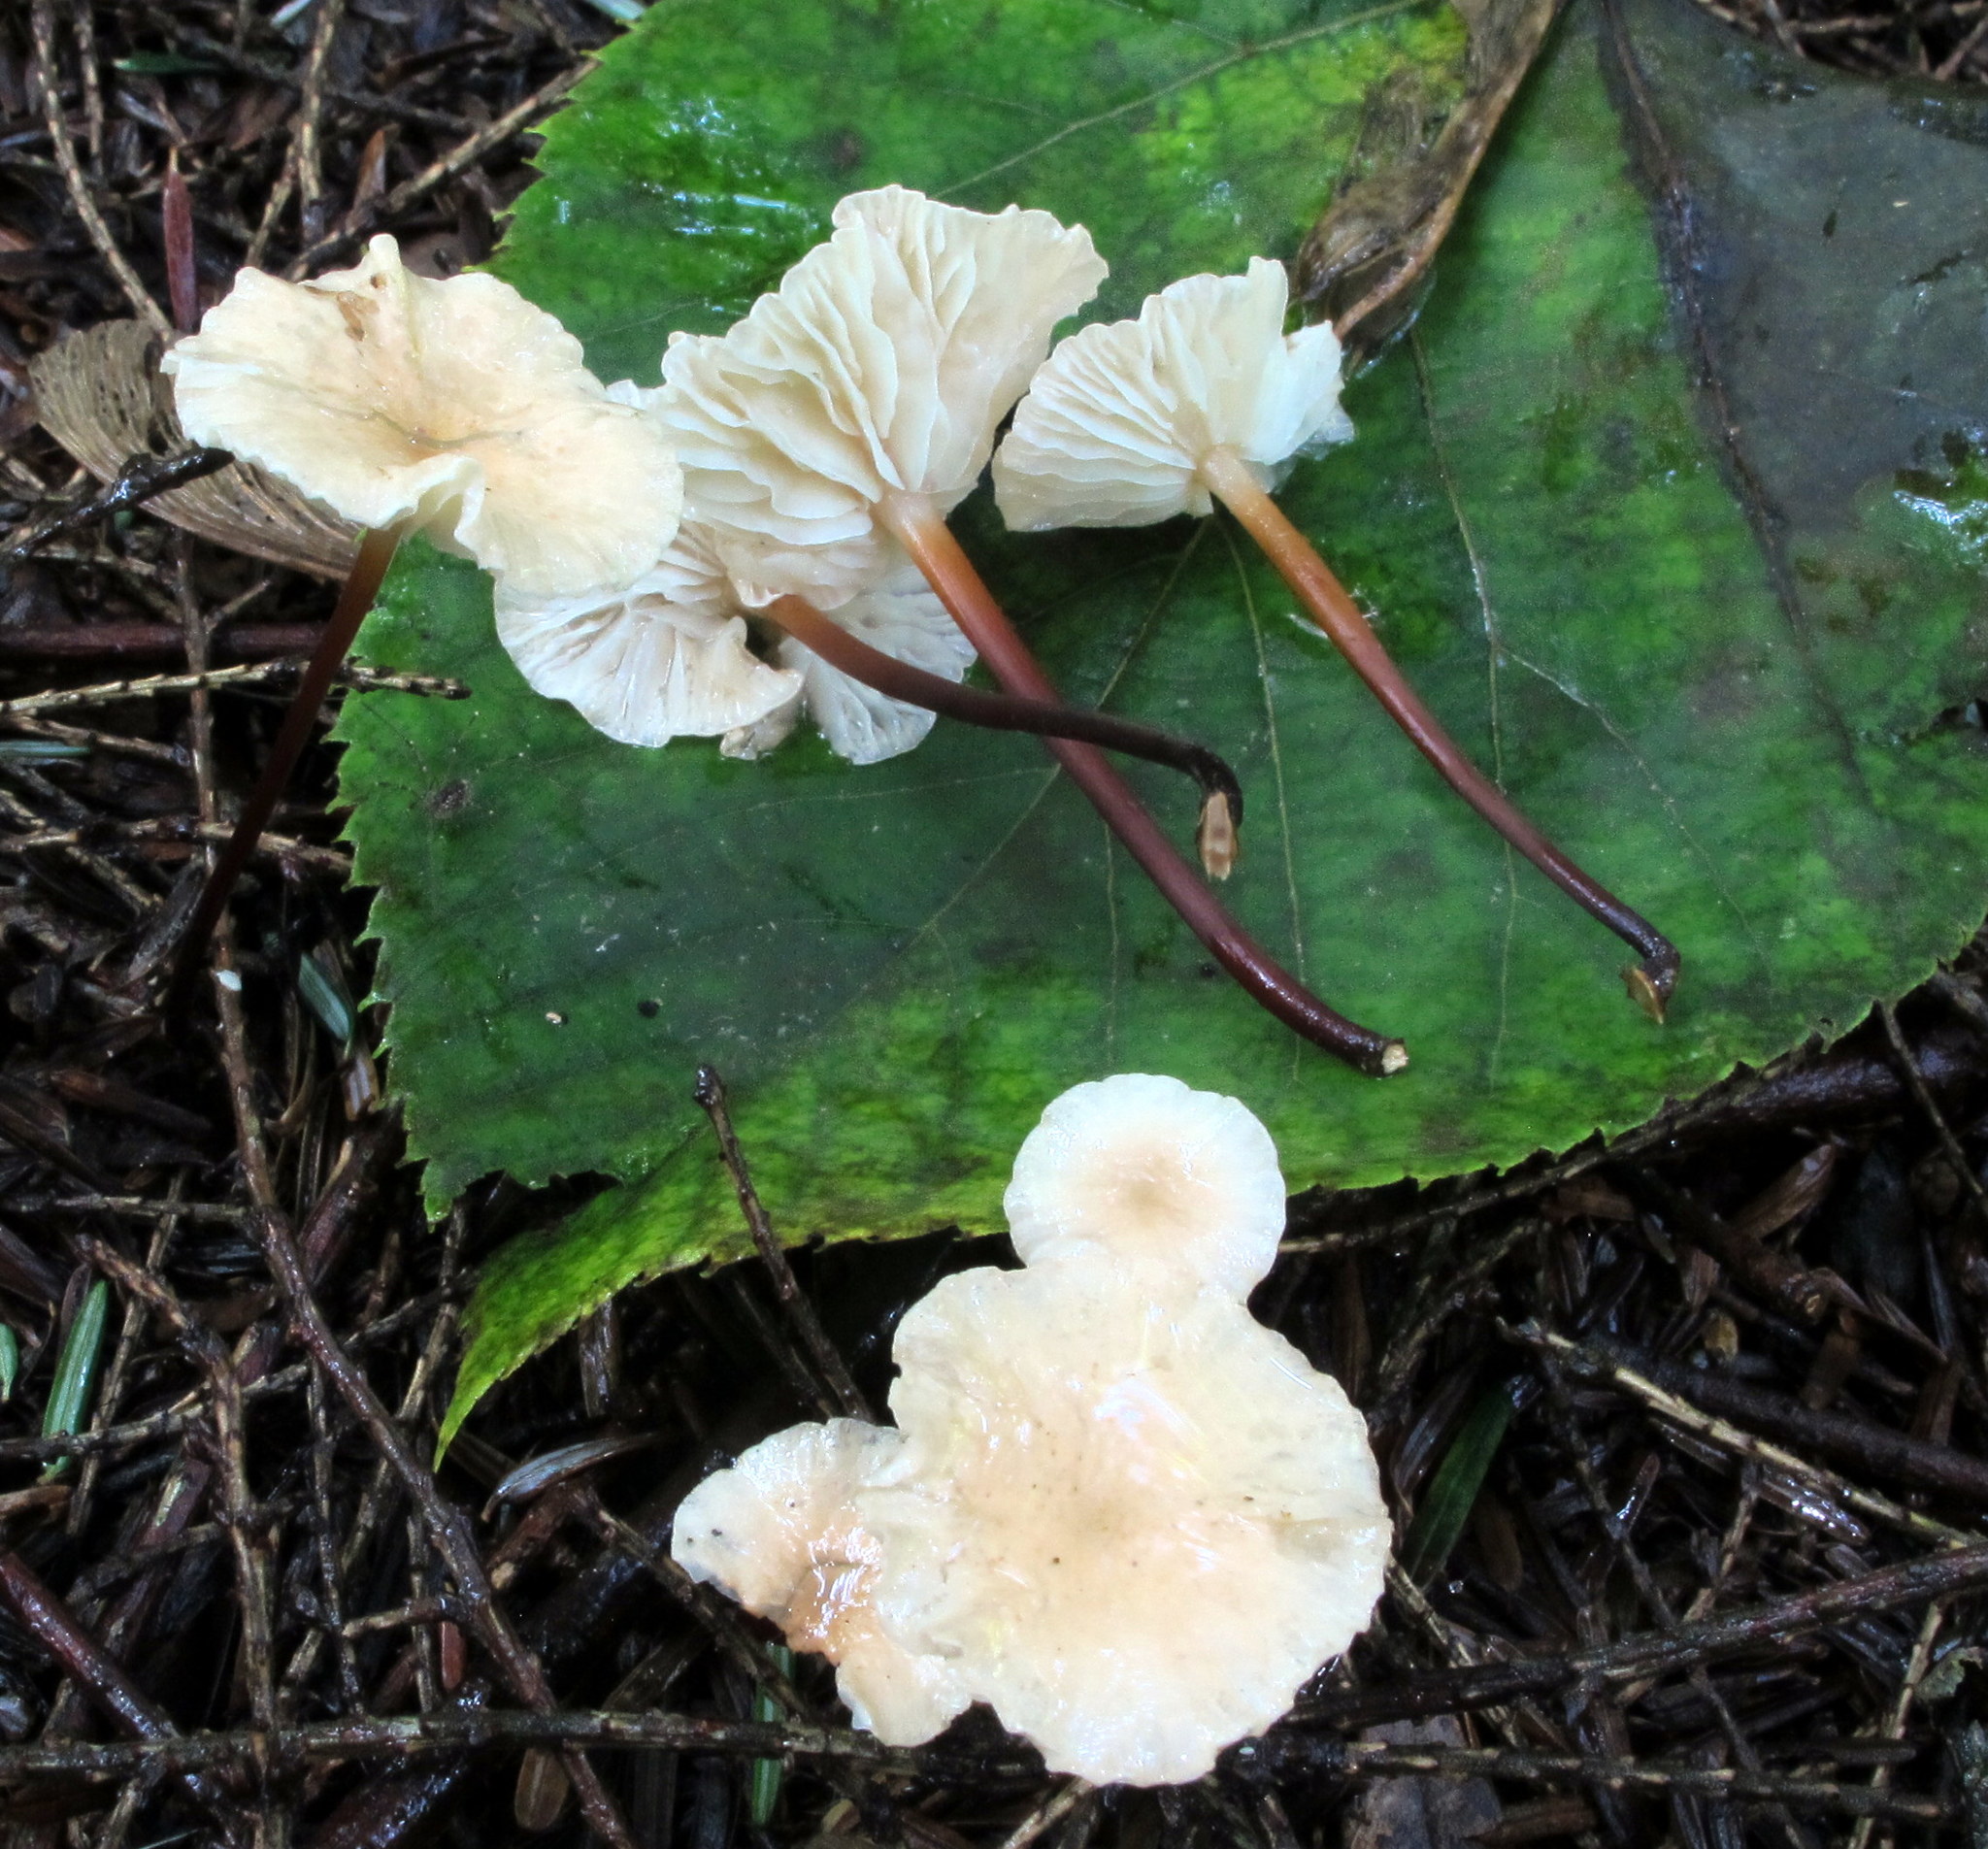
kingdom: Fungi
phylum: Basidiomycota
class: Agaricomycetes
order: Agaricales
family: Omphalotaceae
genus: Mycetinis
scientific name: Mycetinis scorodonius
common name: Vampires bane
